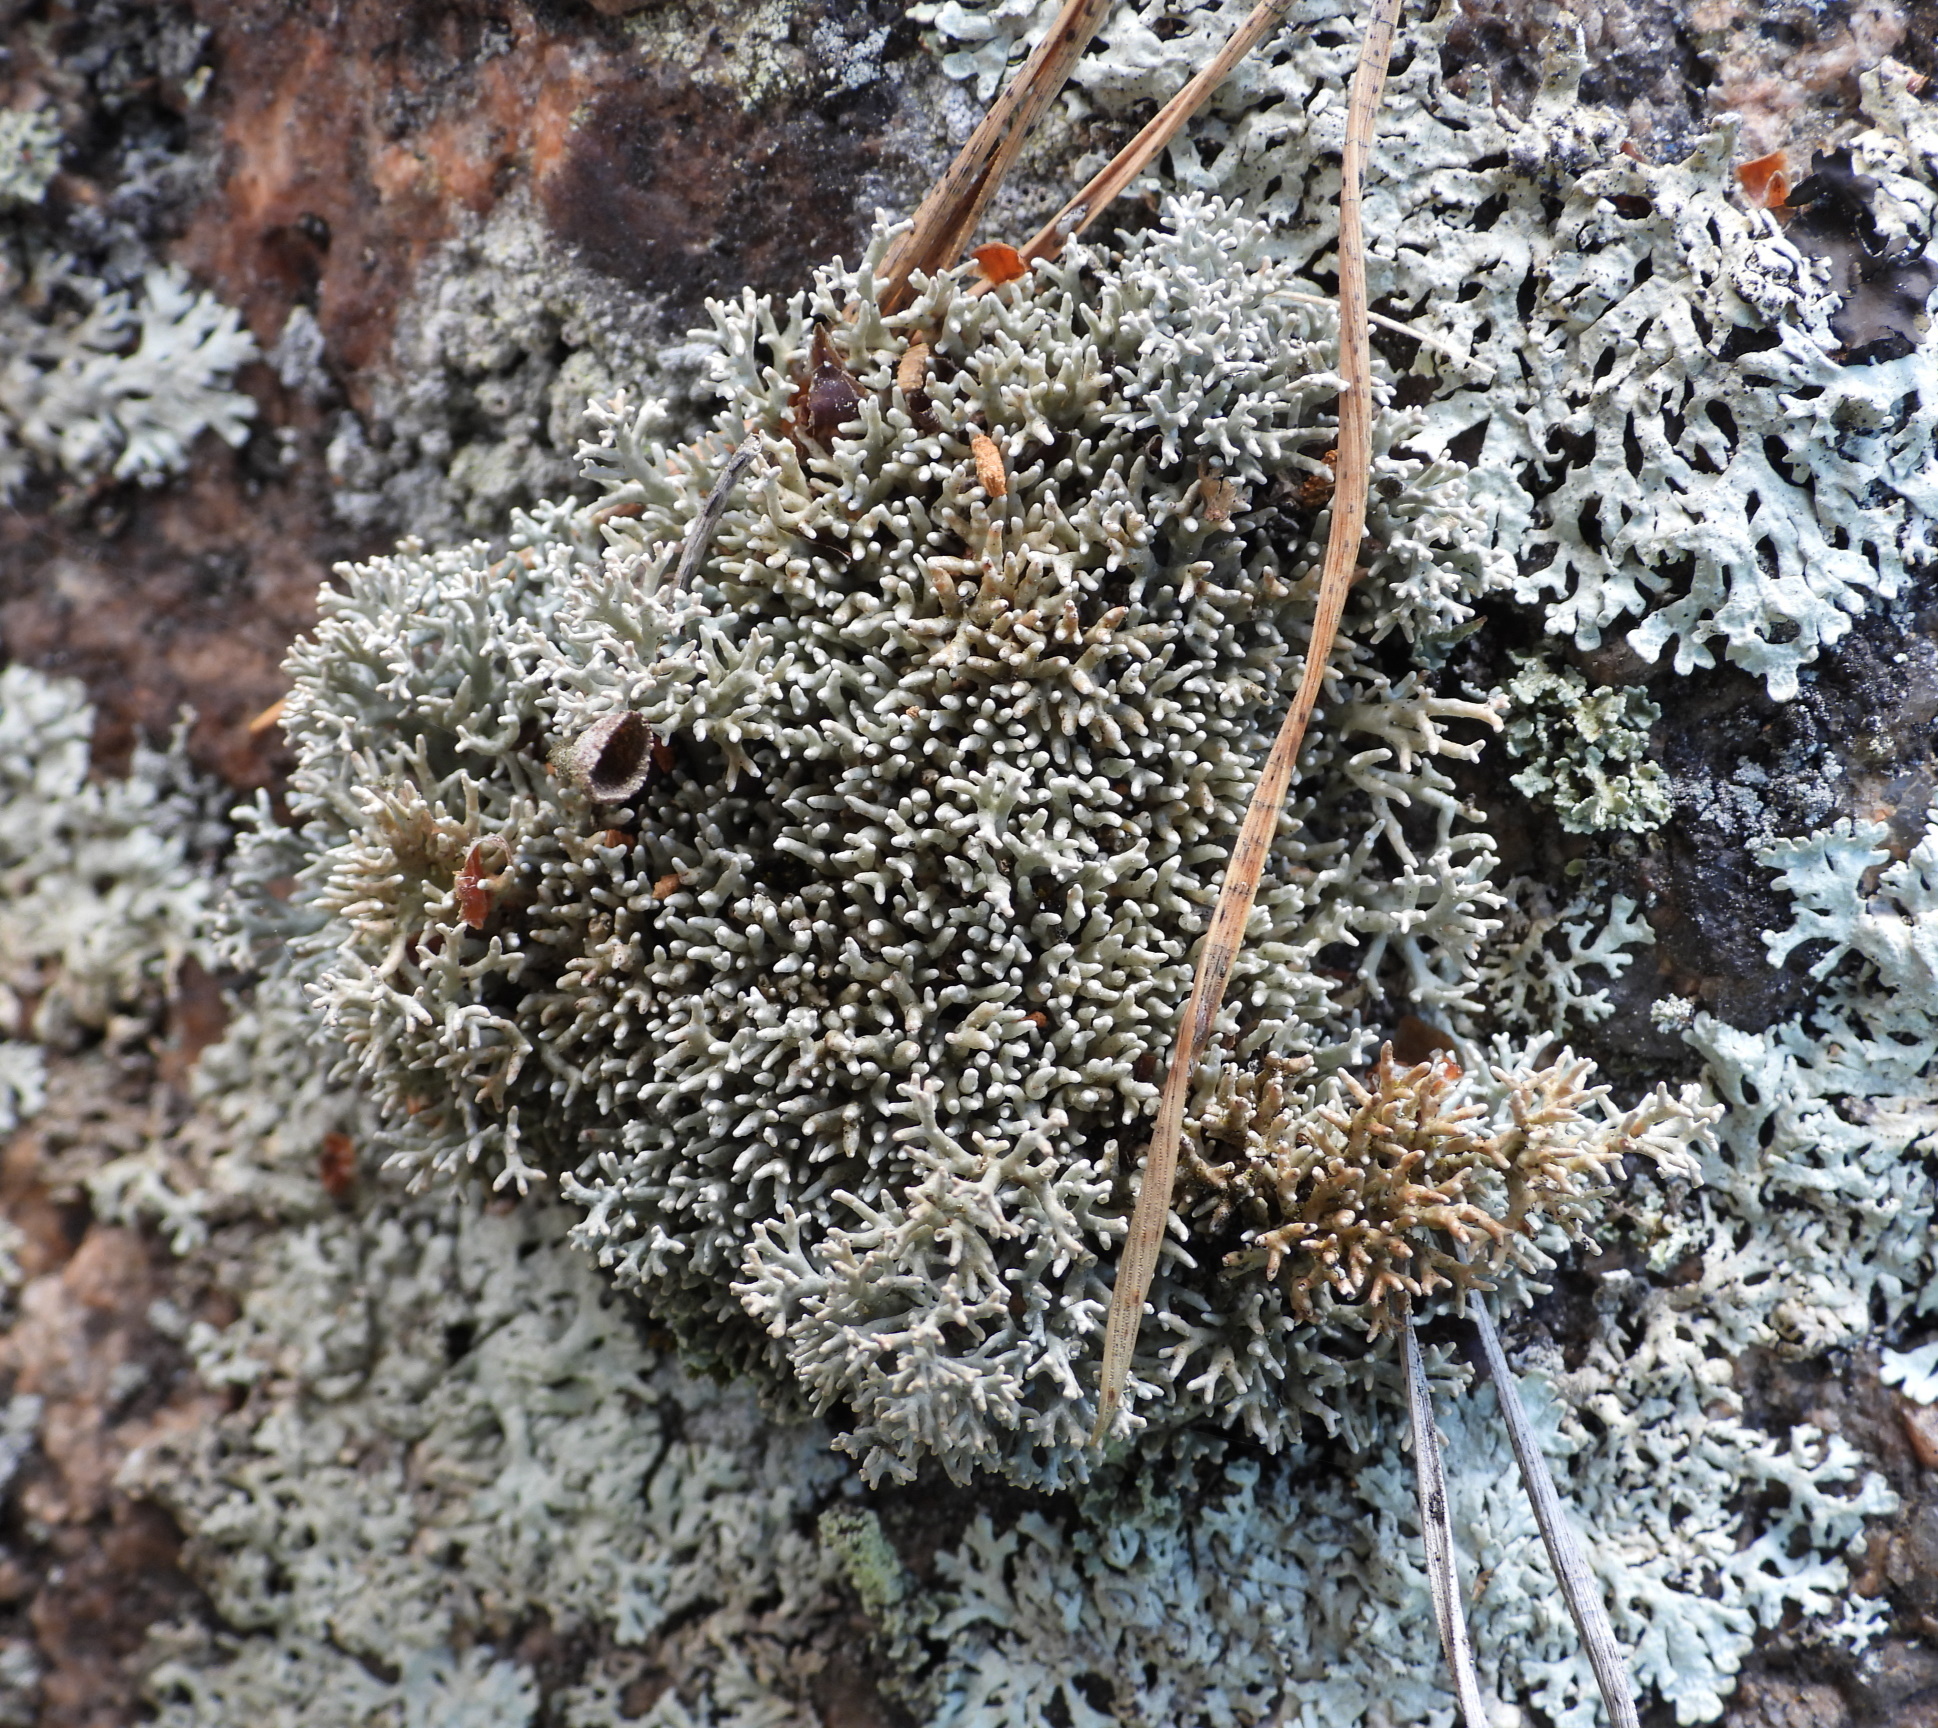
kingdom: Fungi
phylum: Ascomycota
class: Lecanoromycetes
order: Lecanorales
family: Sphaerophoraceae
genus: Sphaerophorus
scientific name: Sphaerophorus fragilis
